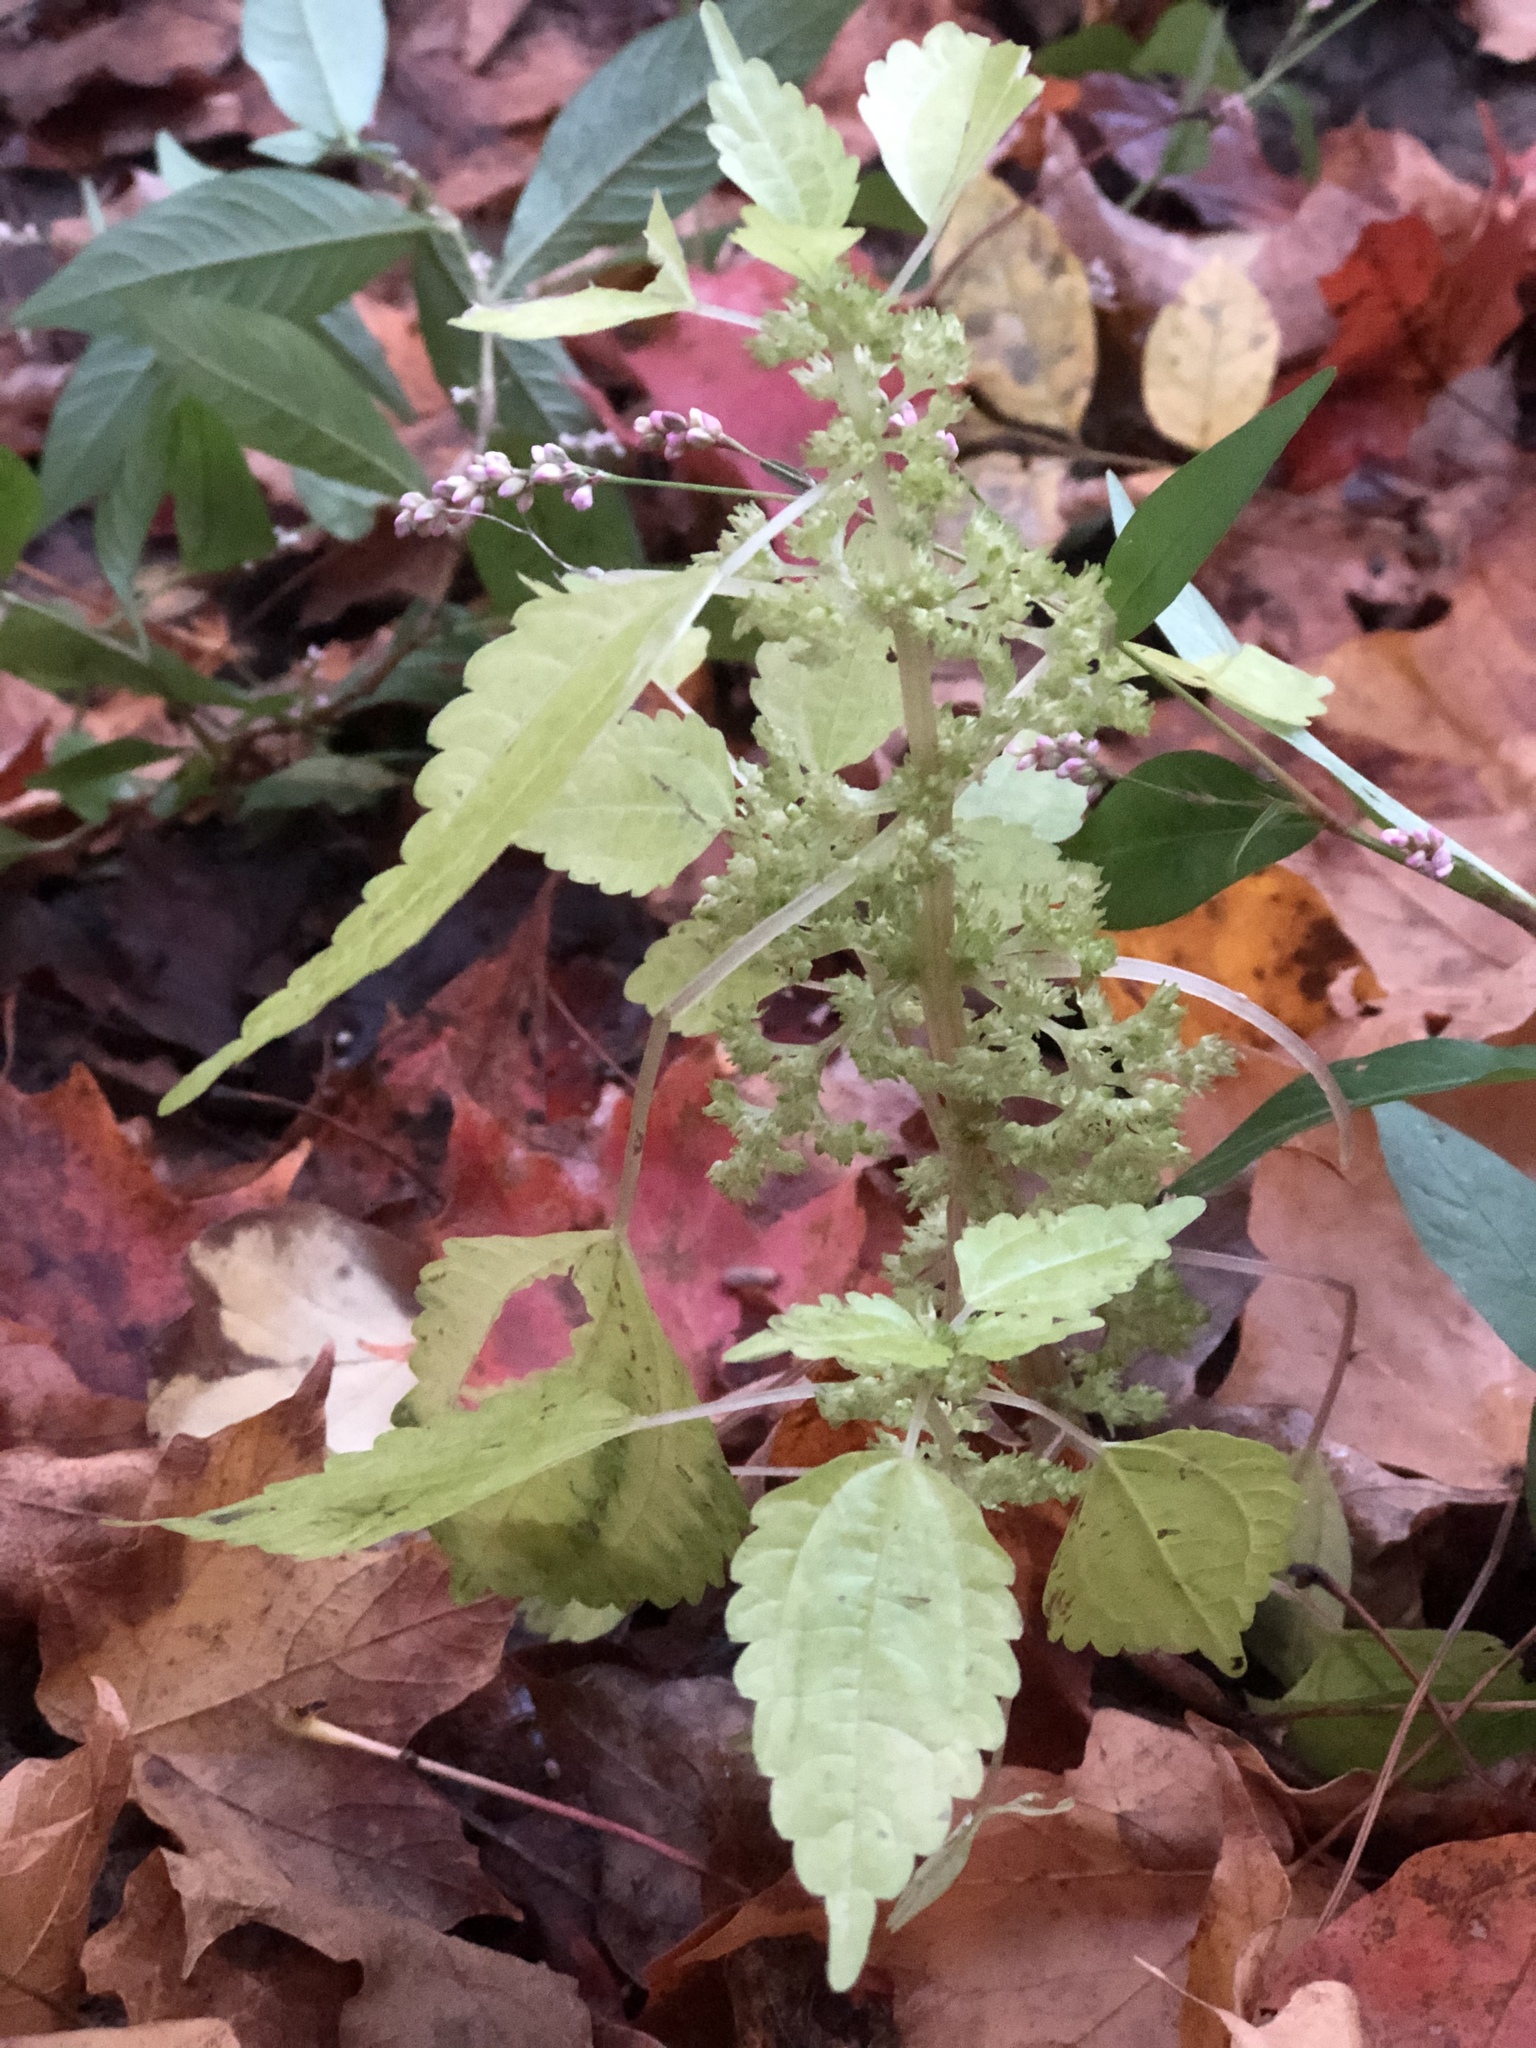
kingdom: Plantae
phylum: Tracheophyta
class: Magnoliopsida
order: Rosales
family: Urticaceae
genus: Pilea
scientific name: Pilea pumila
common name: Clearweed
